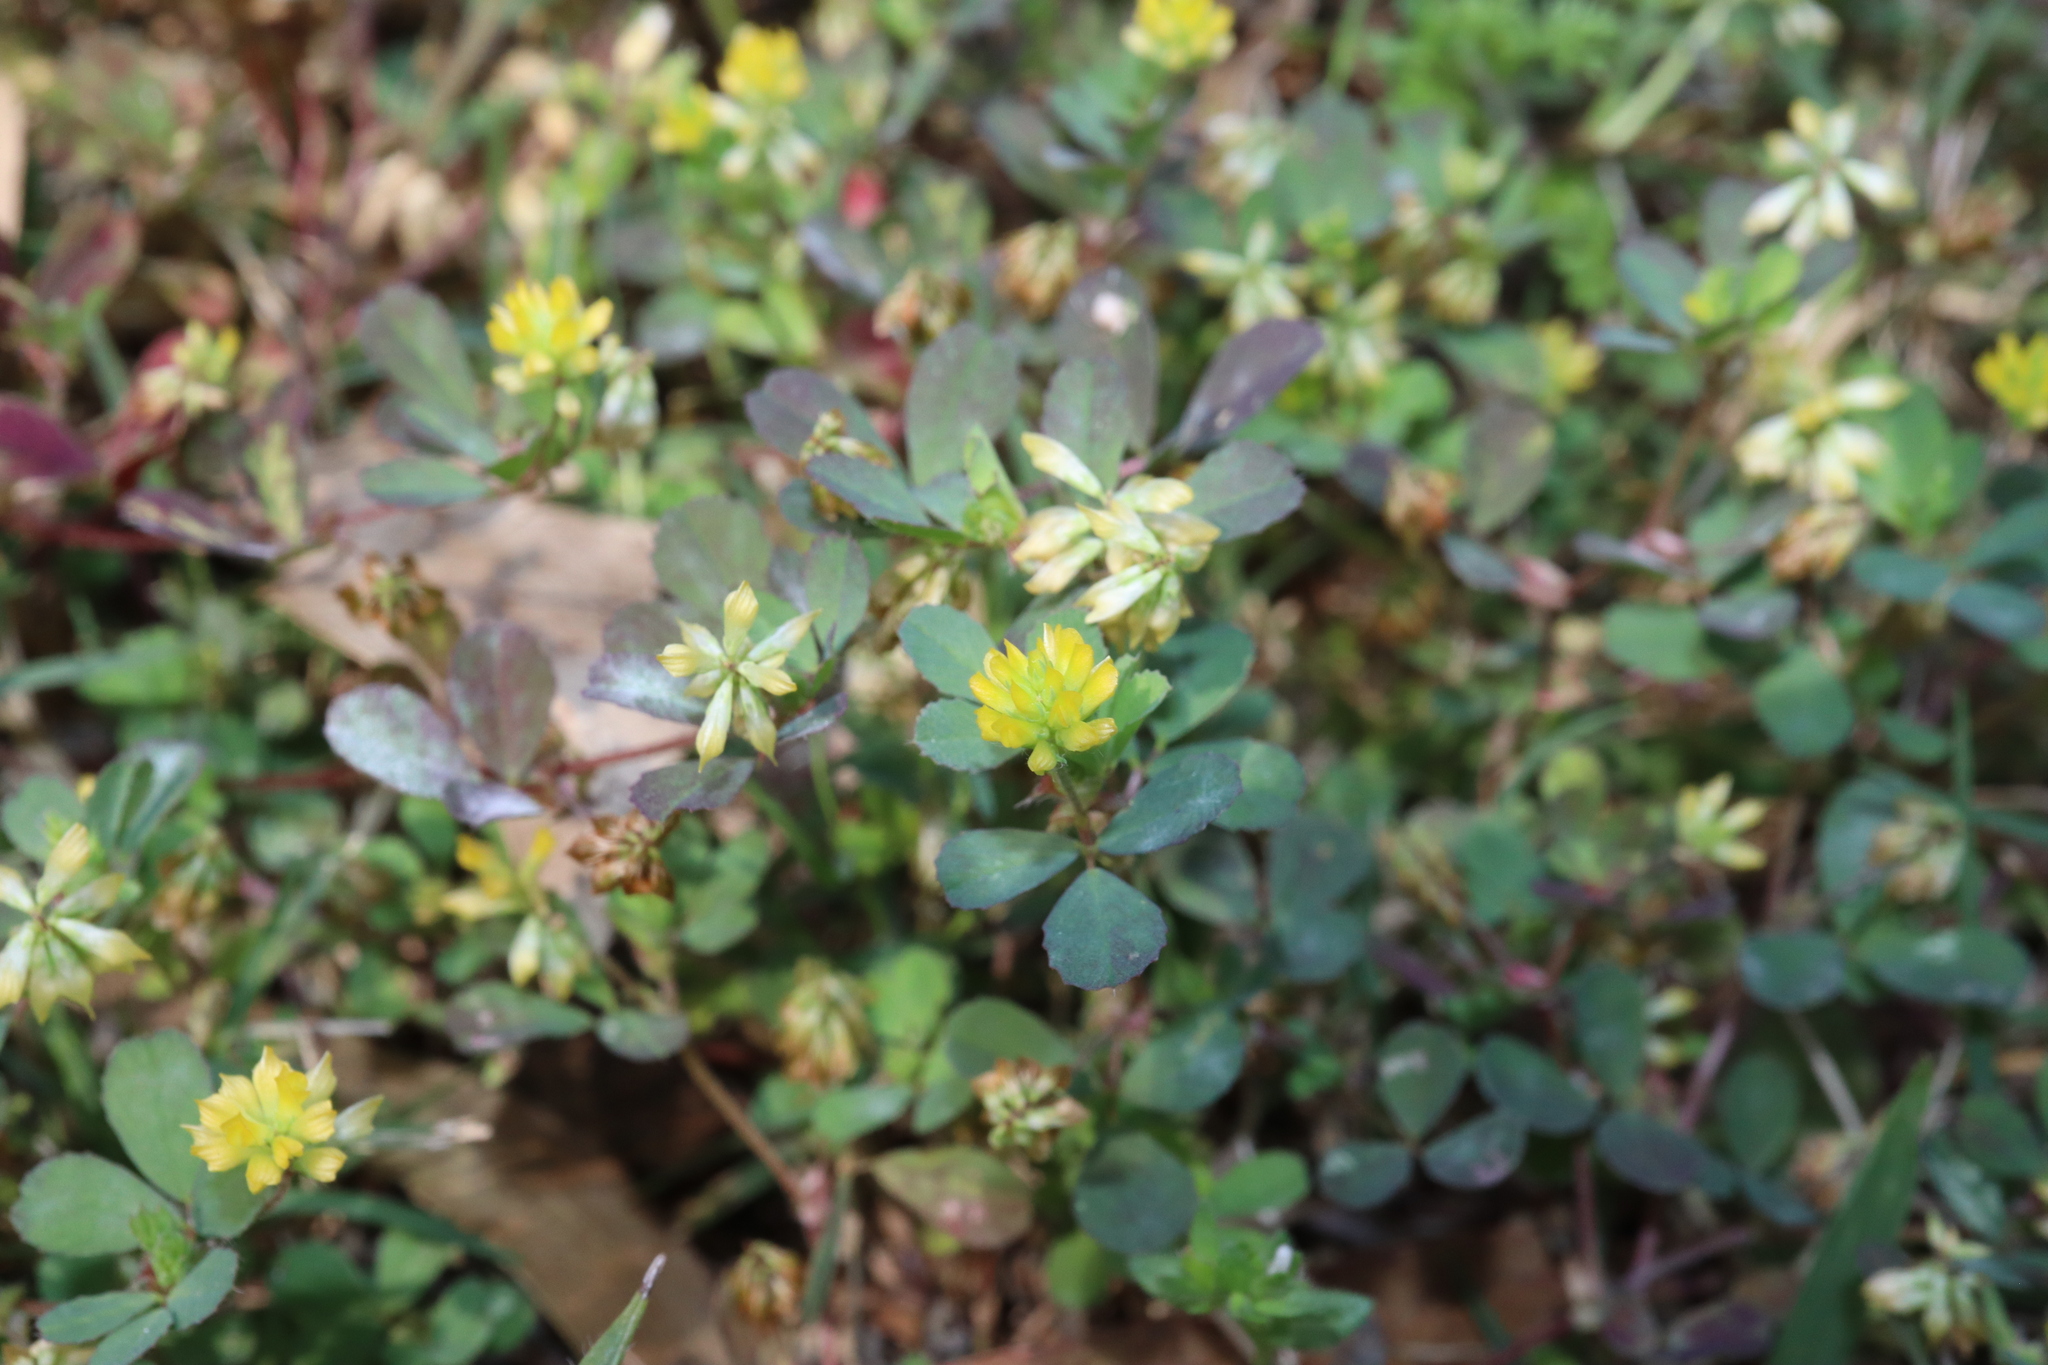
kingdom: Plantae
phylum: Tracheophyta
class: Magnoliopsida
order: Fabales
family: Fabaceae
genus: Trifolium
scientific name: Trifolium dubium
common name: Suckling clover
